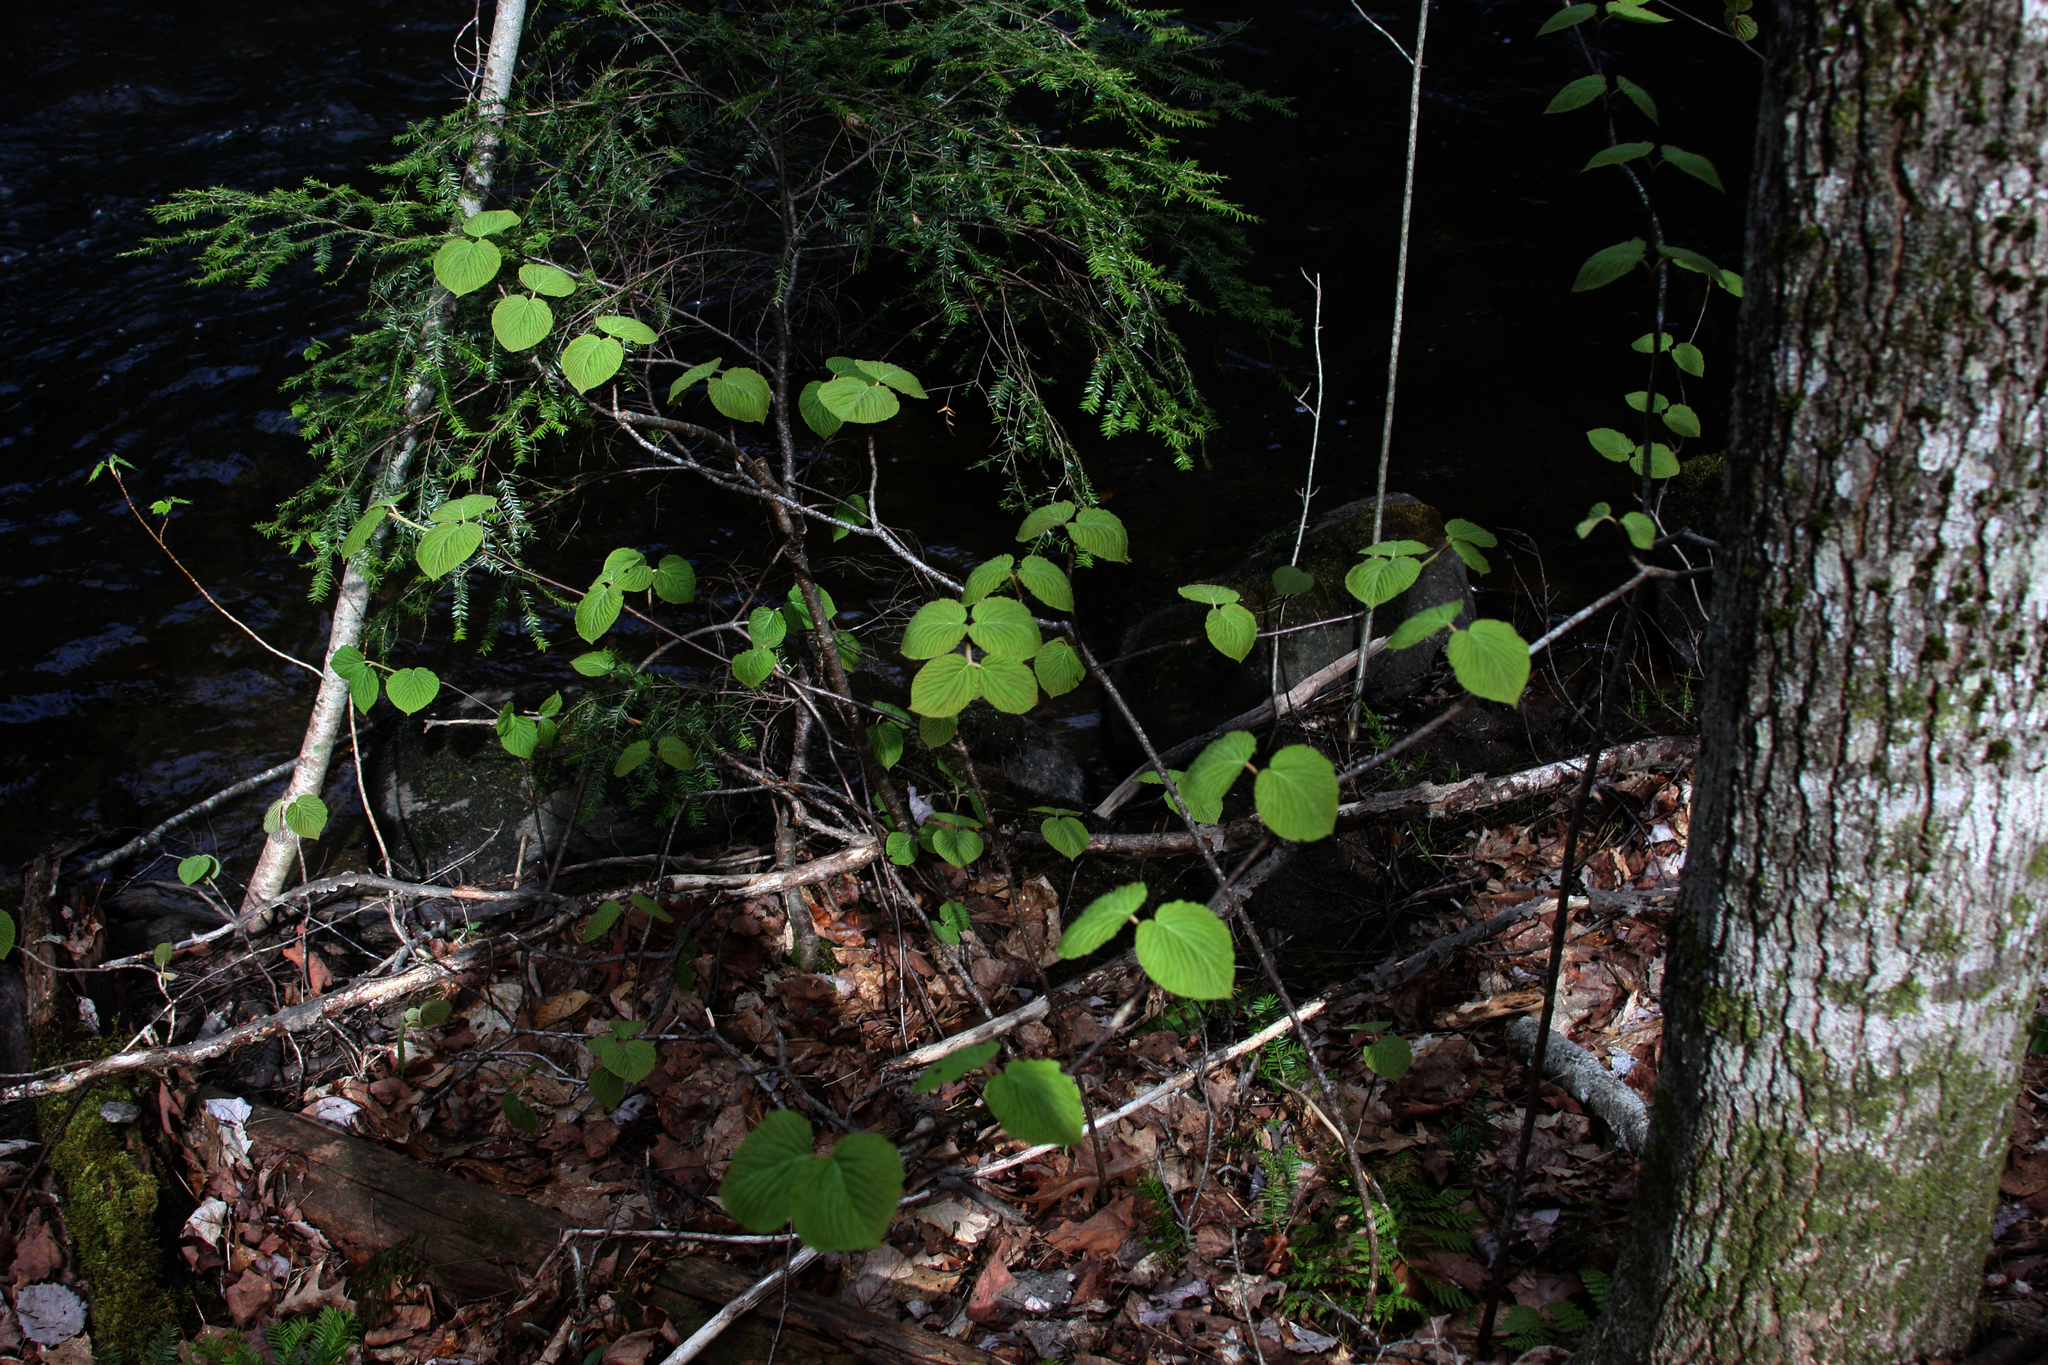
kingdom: Plantae
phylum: Tracheophyta
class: Magnoliopsida
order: Dipsacales
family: Viburnaceae
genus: Viburnum
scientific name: Viburnum lantanoides
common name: Hobblebush
